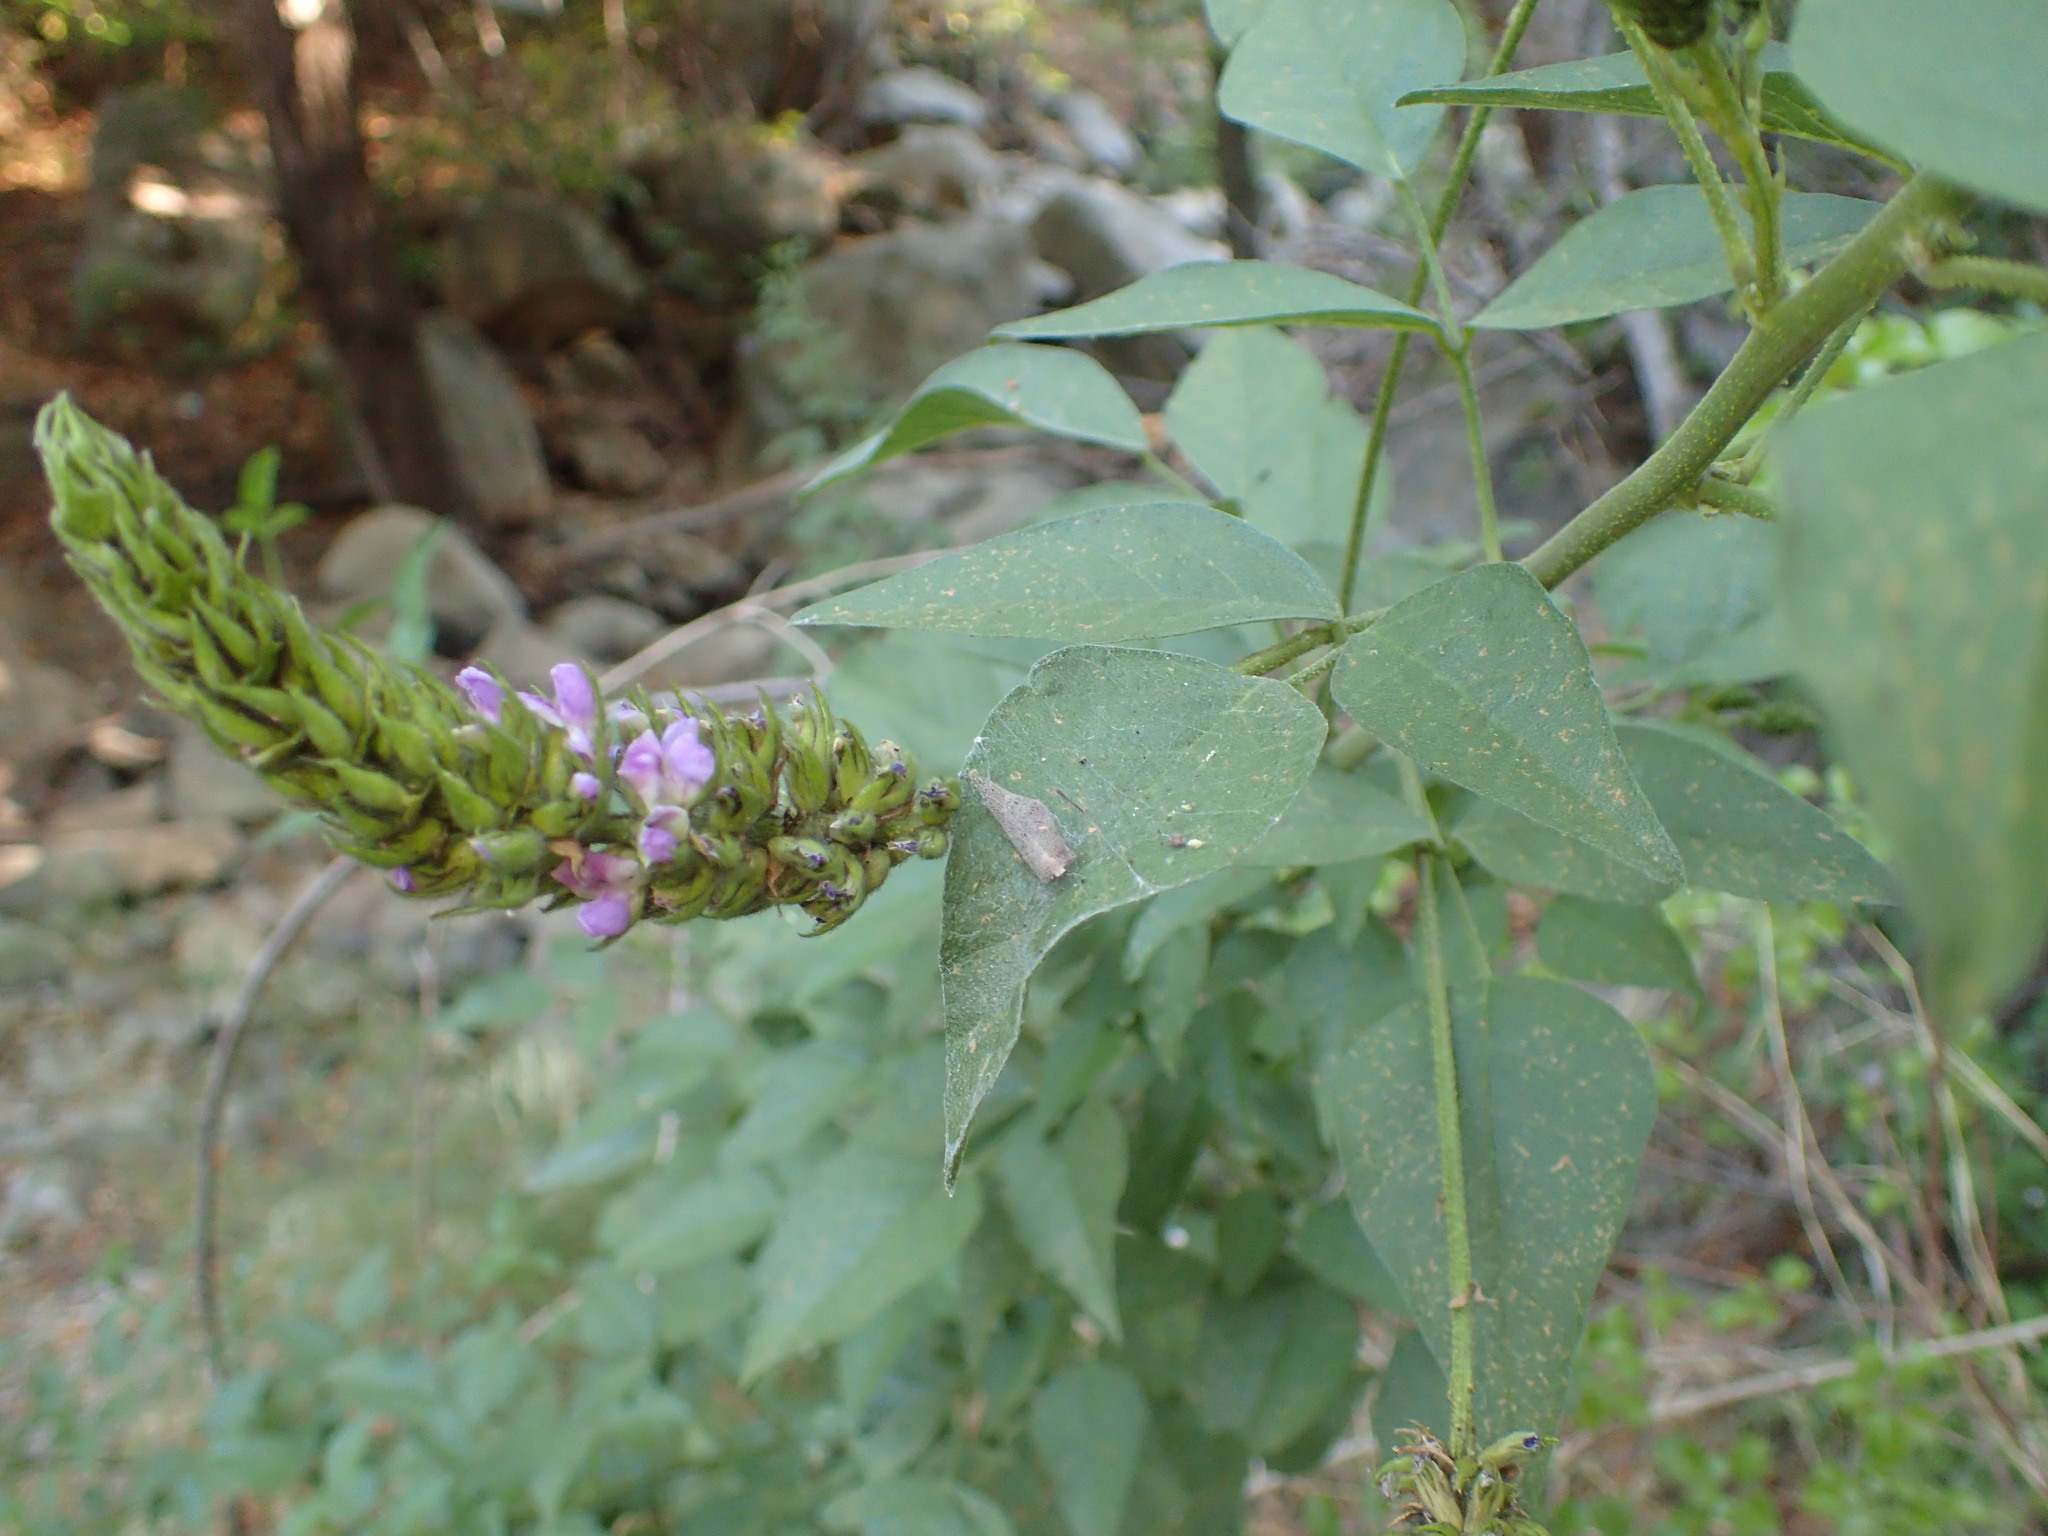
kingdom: Plantae
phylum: Tracheophyta
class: Magnoliopsida
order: Fabales
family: Fabaceae
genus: Hoita
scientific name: Hoita macrostachya
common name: Leatherroot
